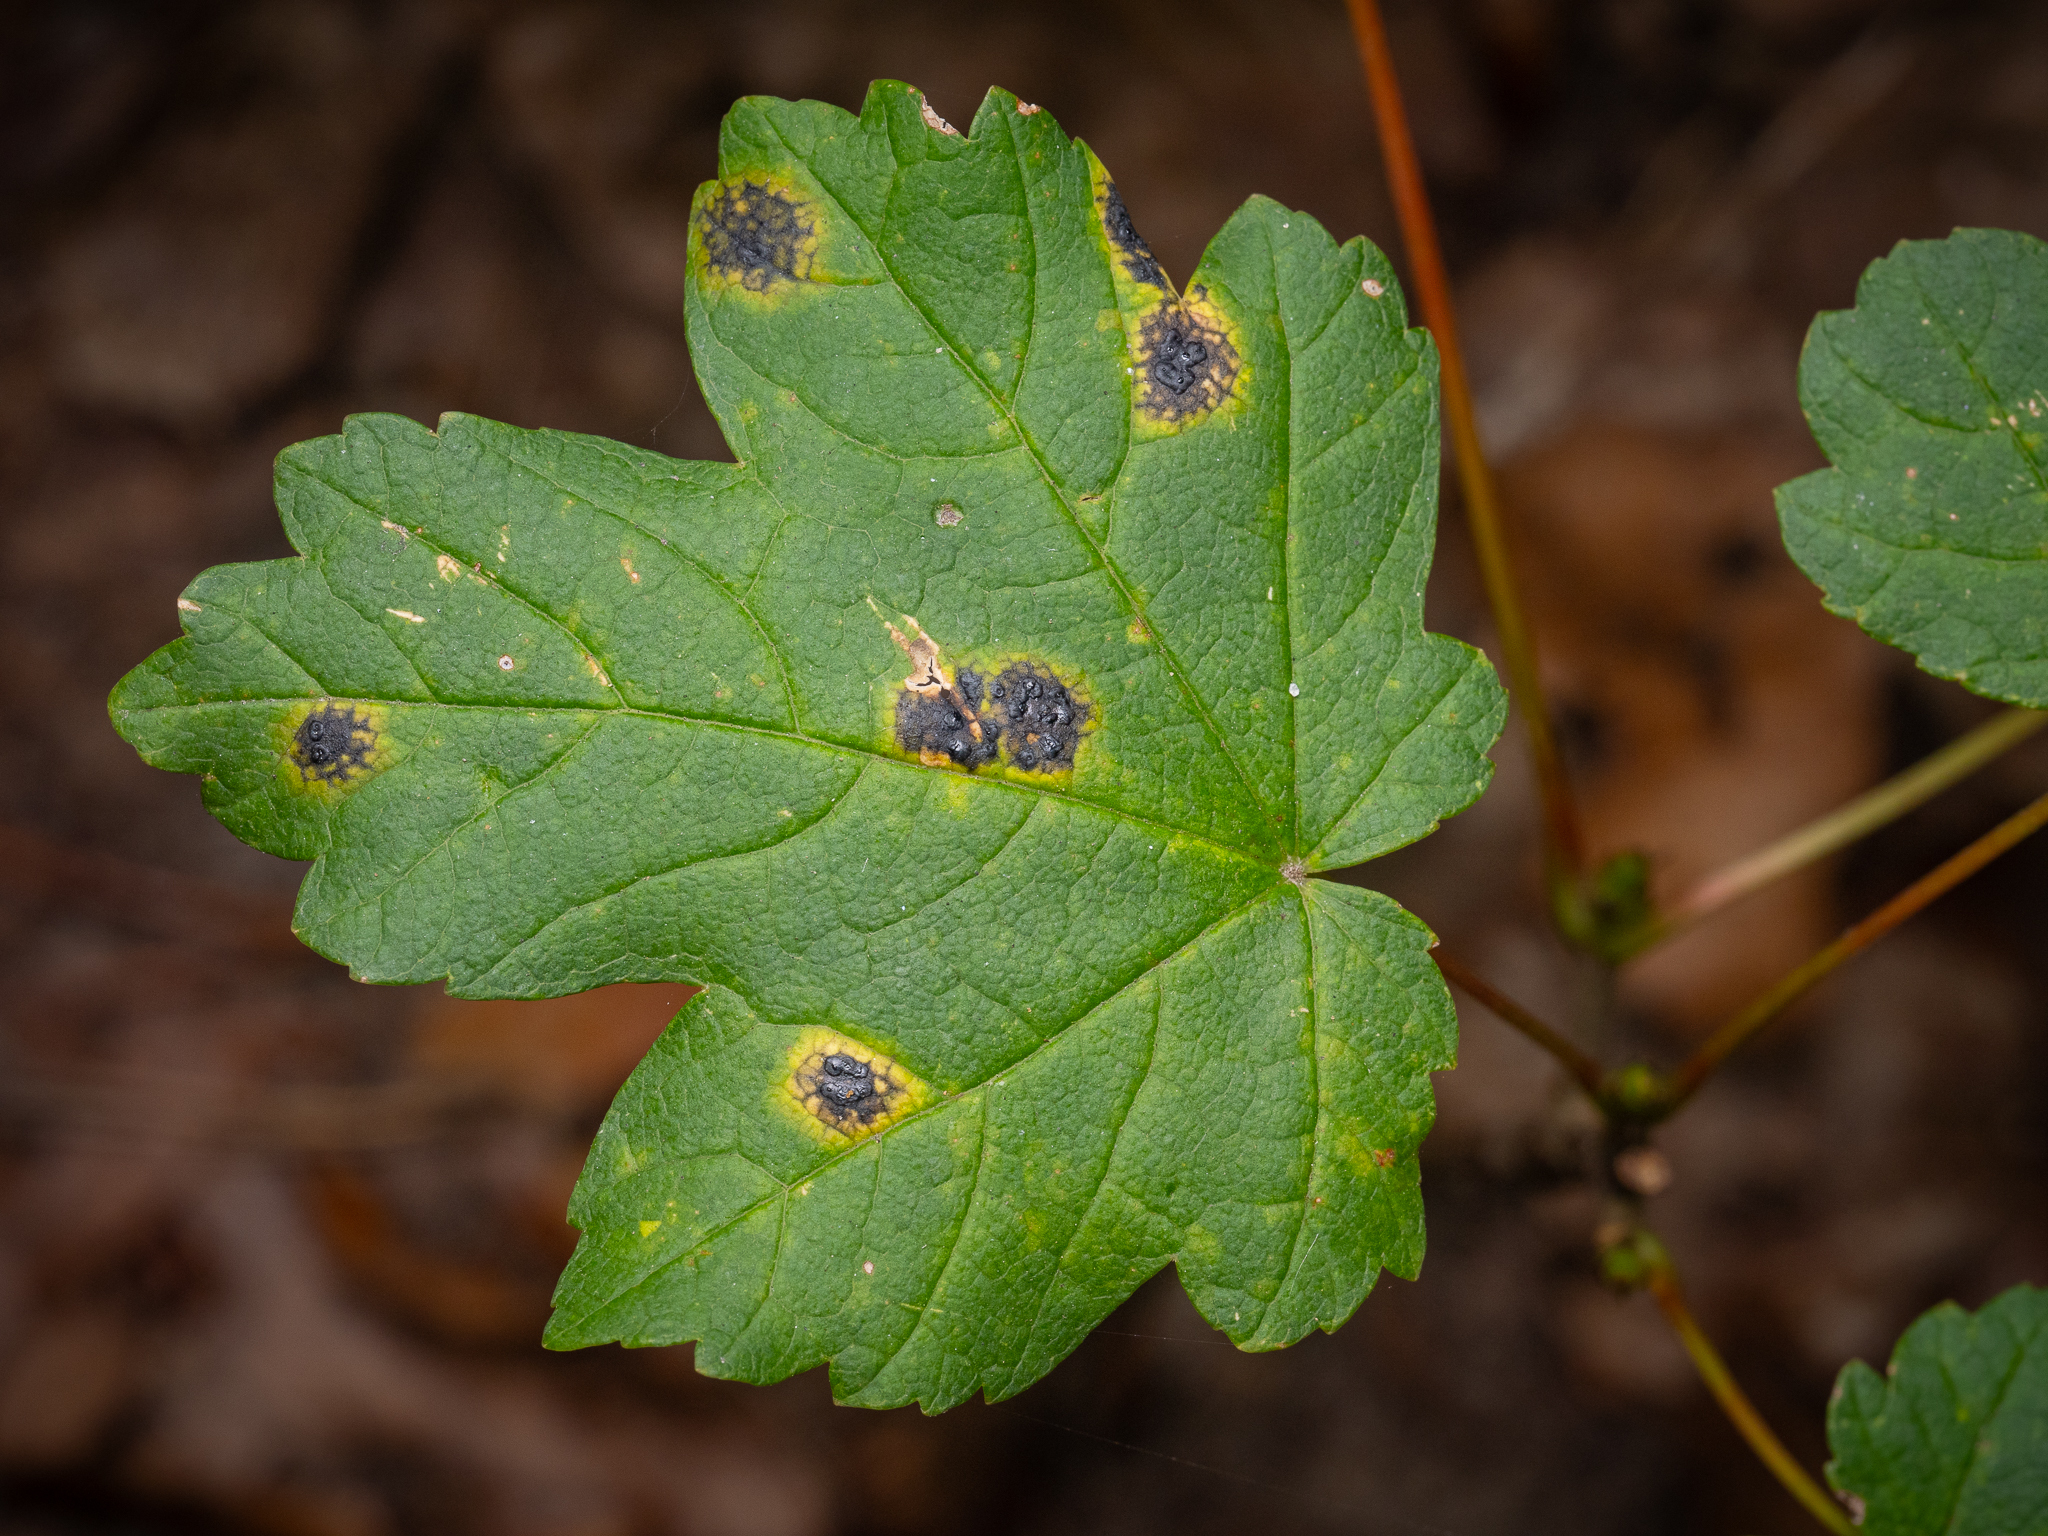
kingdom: Fungi
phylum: Ascomycota
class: Leotiomycetes
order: Rhytismatales
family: Rhytismataceae
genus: Rhytisma
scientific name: Rhytisma acerinum
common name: European tar spot
